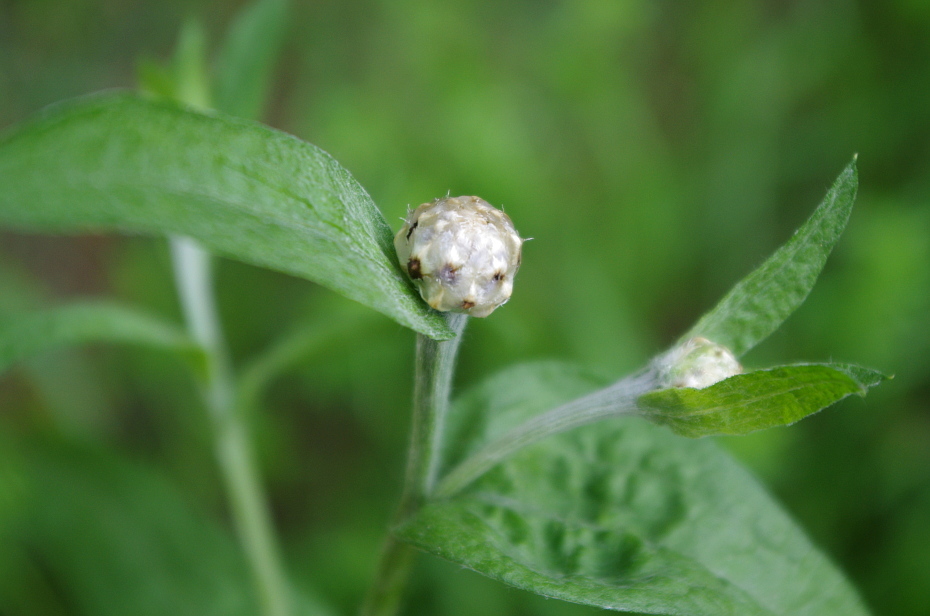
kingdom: Plantae
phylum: Tracheophyta
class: Magnoliopsida
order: Asterales
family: Asteraceae
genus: Centaurea
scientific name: Centaurea jacea
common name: Brown knapweed
